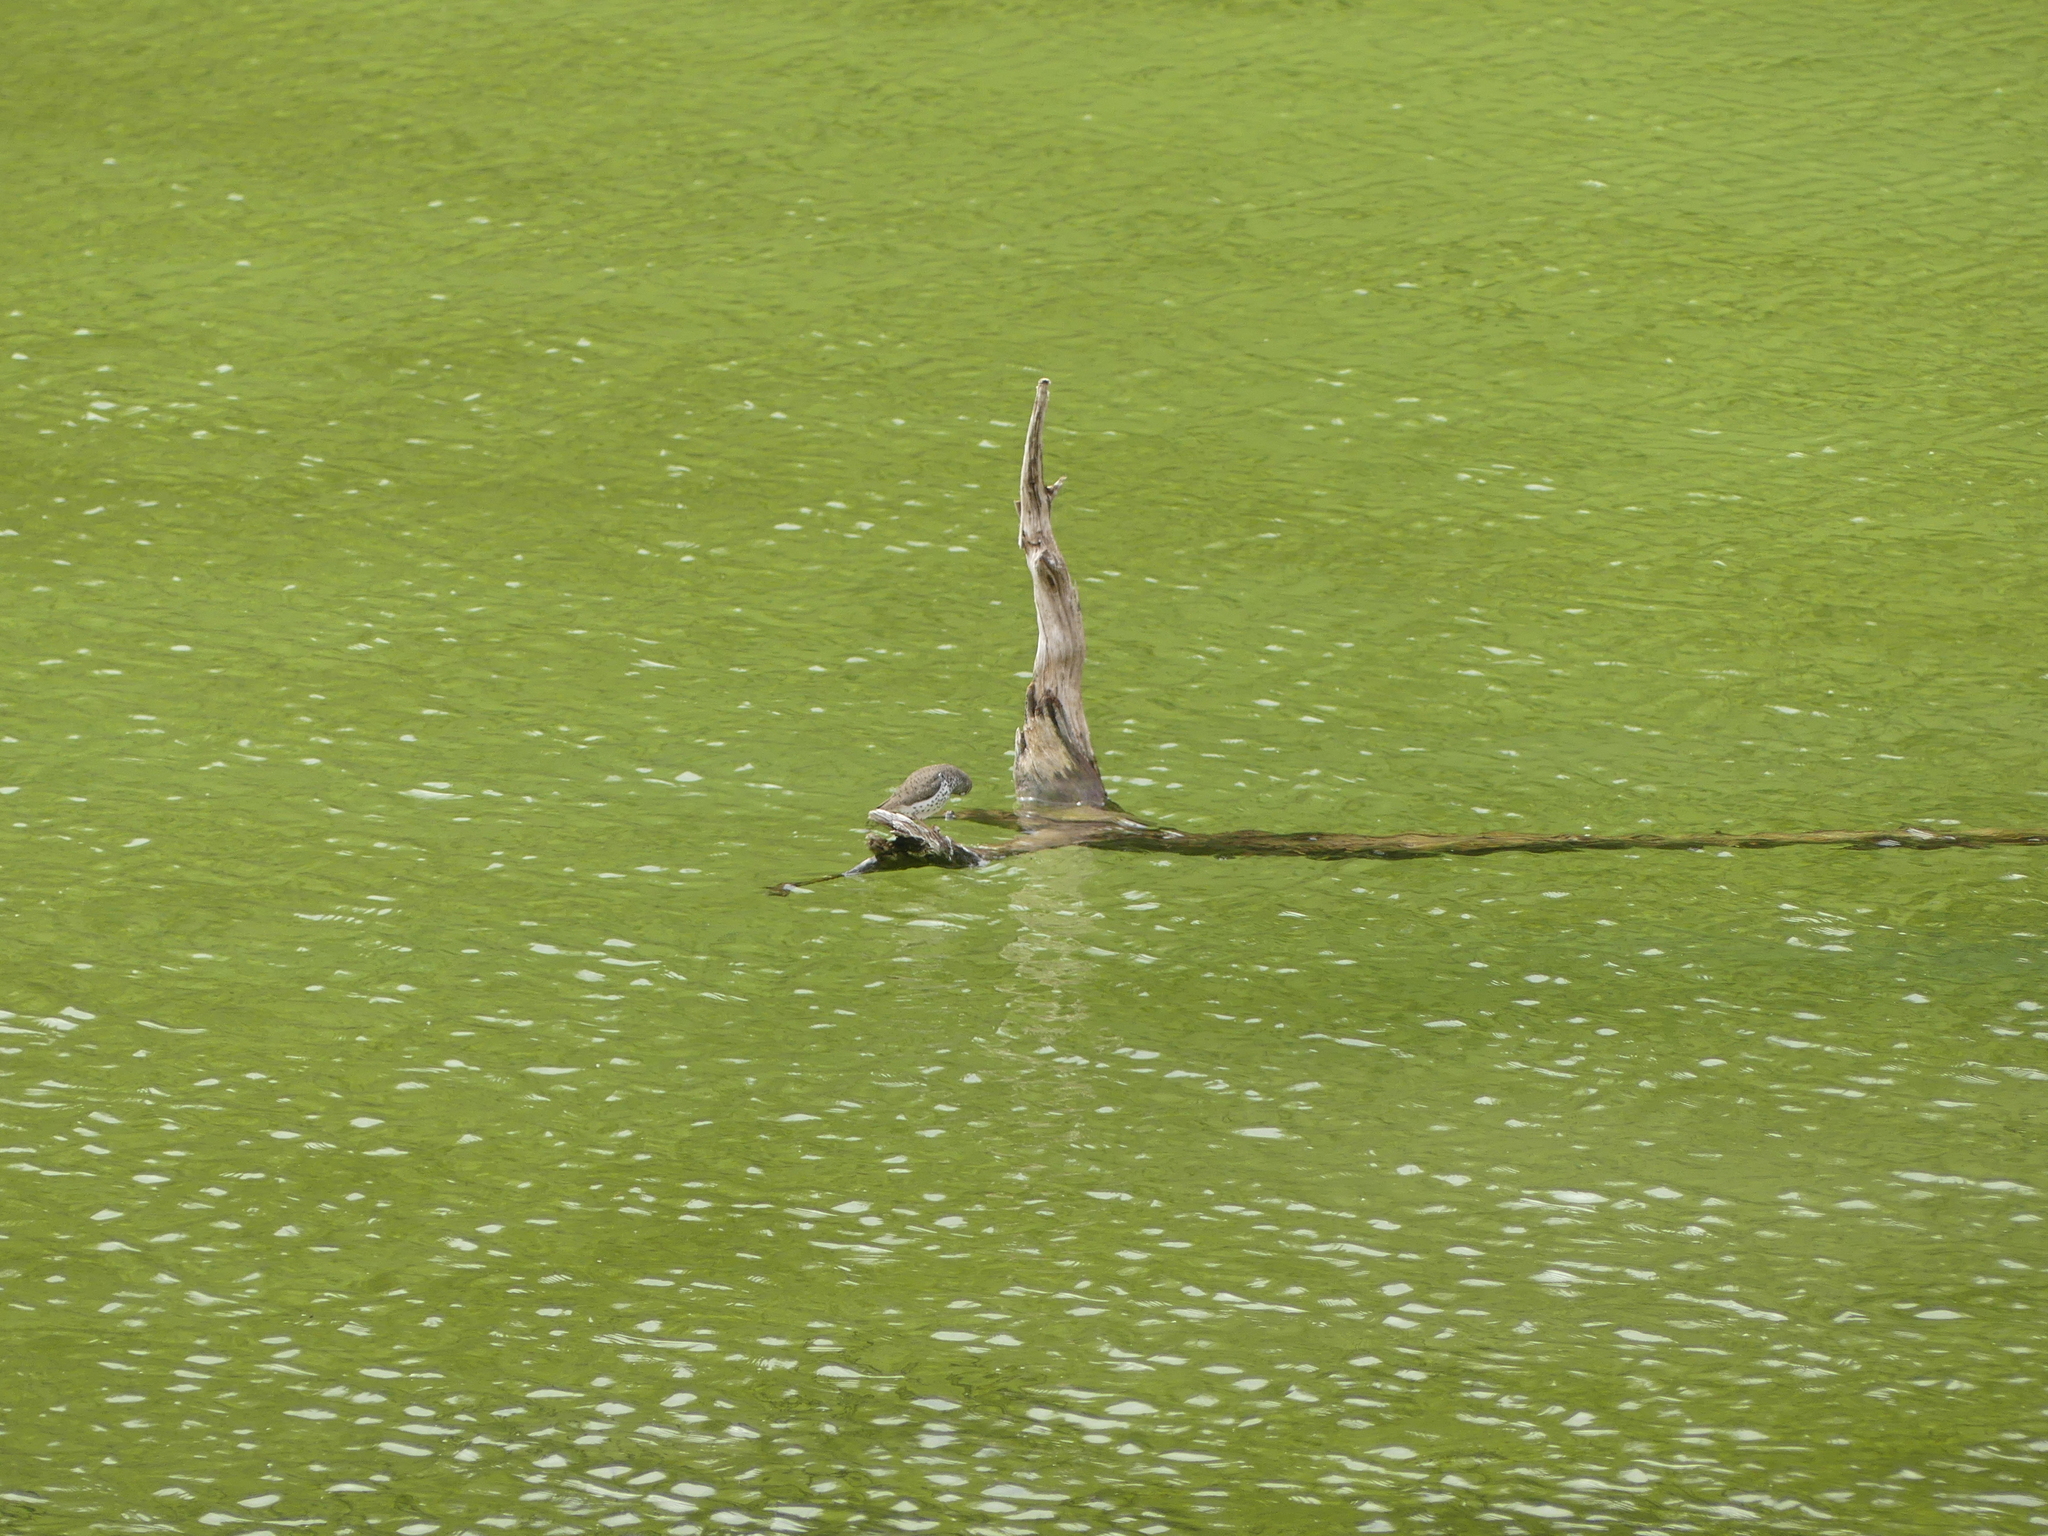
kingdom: Animalia
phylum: Chordata
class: Aves
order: Charadriiformes
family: Scolopacidae
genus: Actitis
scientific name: Actitis macularius
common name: Spotted sandpiper
